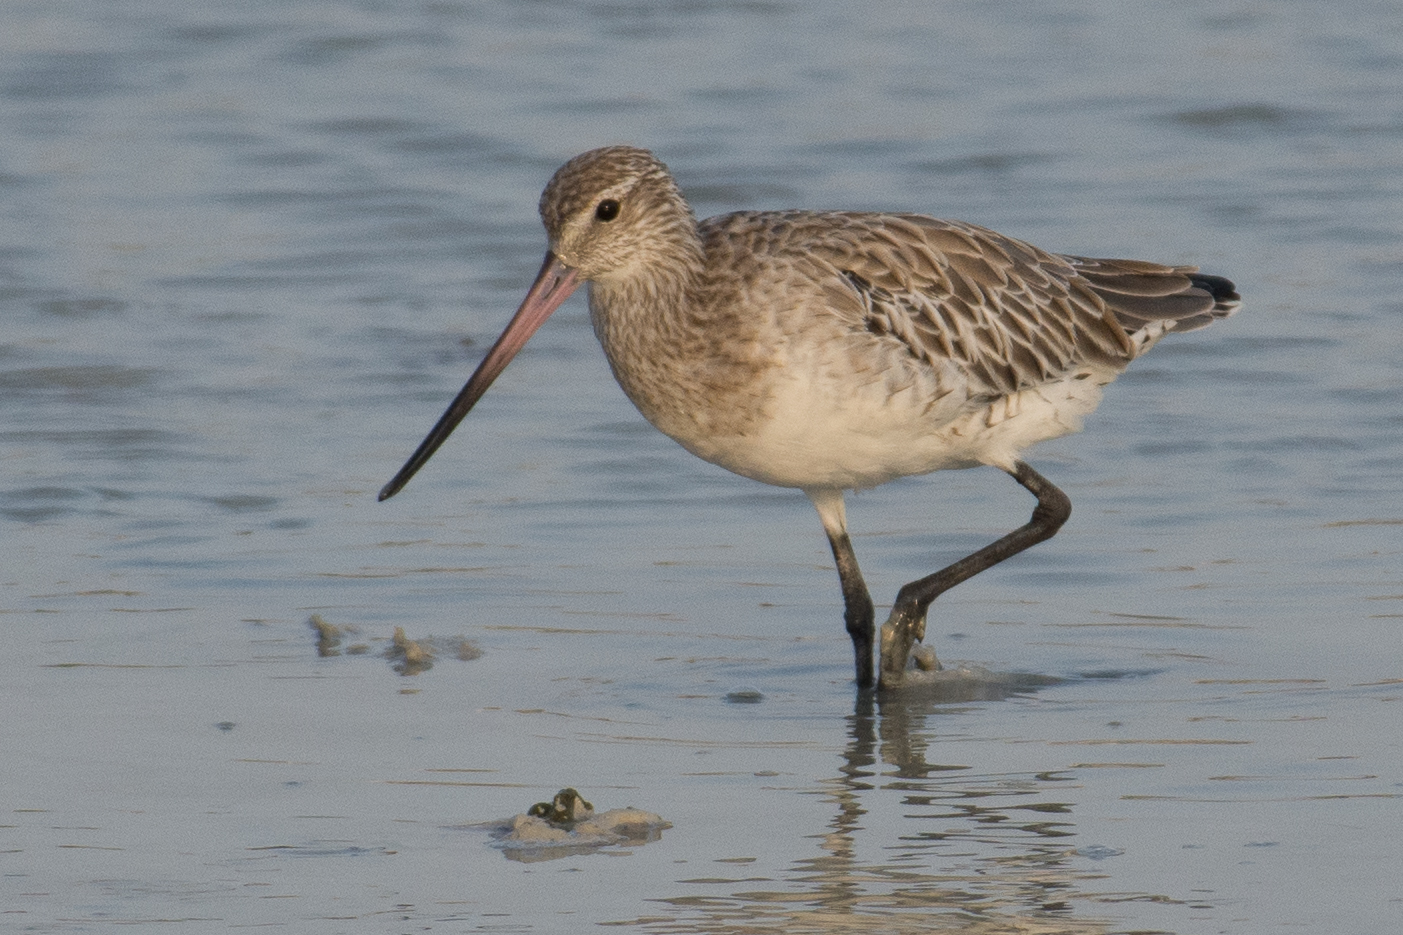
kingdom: Animalia
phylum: Chordata
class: Aves
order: Charadriiformes
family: Scolopacidae
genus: Limosa
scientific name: Limosa lapponica
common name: Bar-tailed godwit
